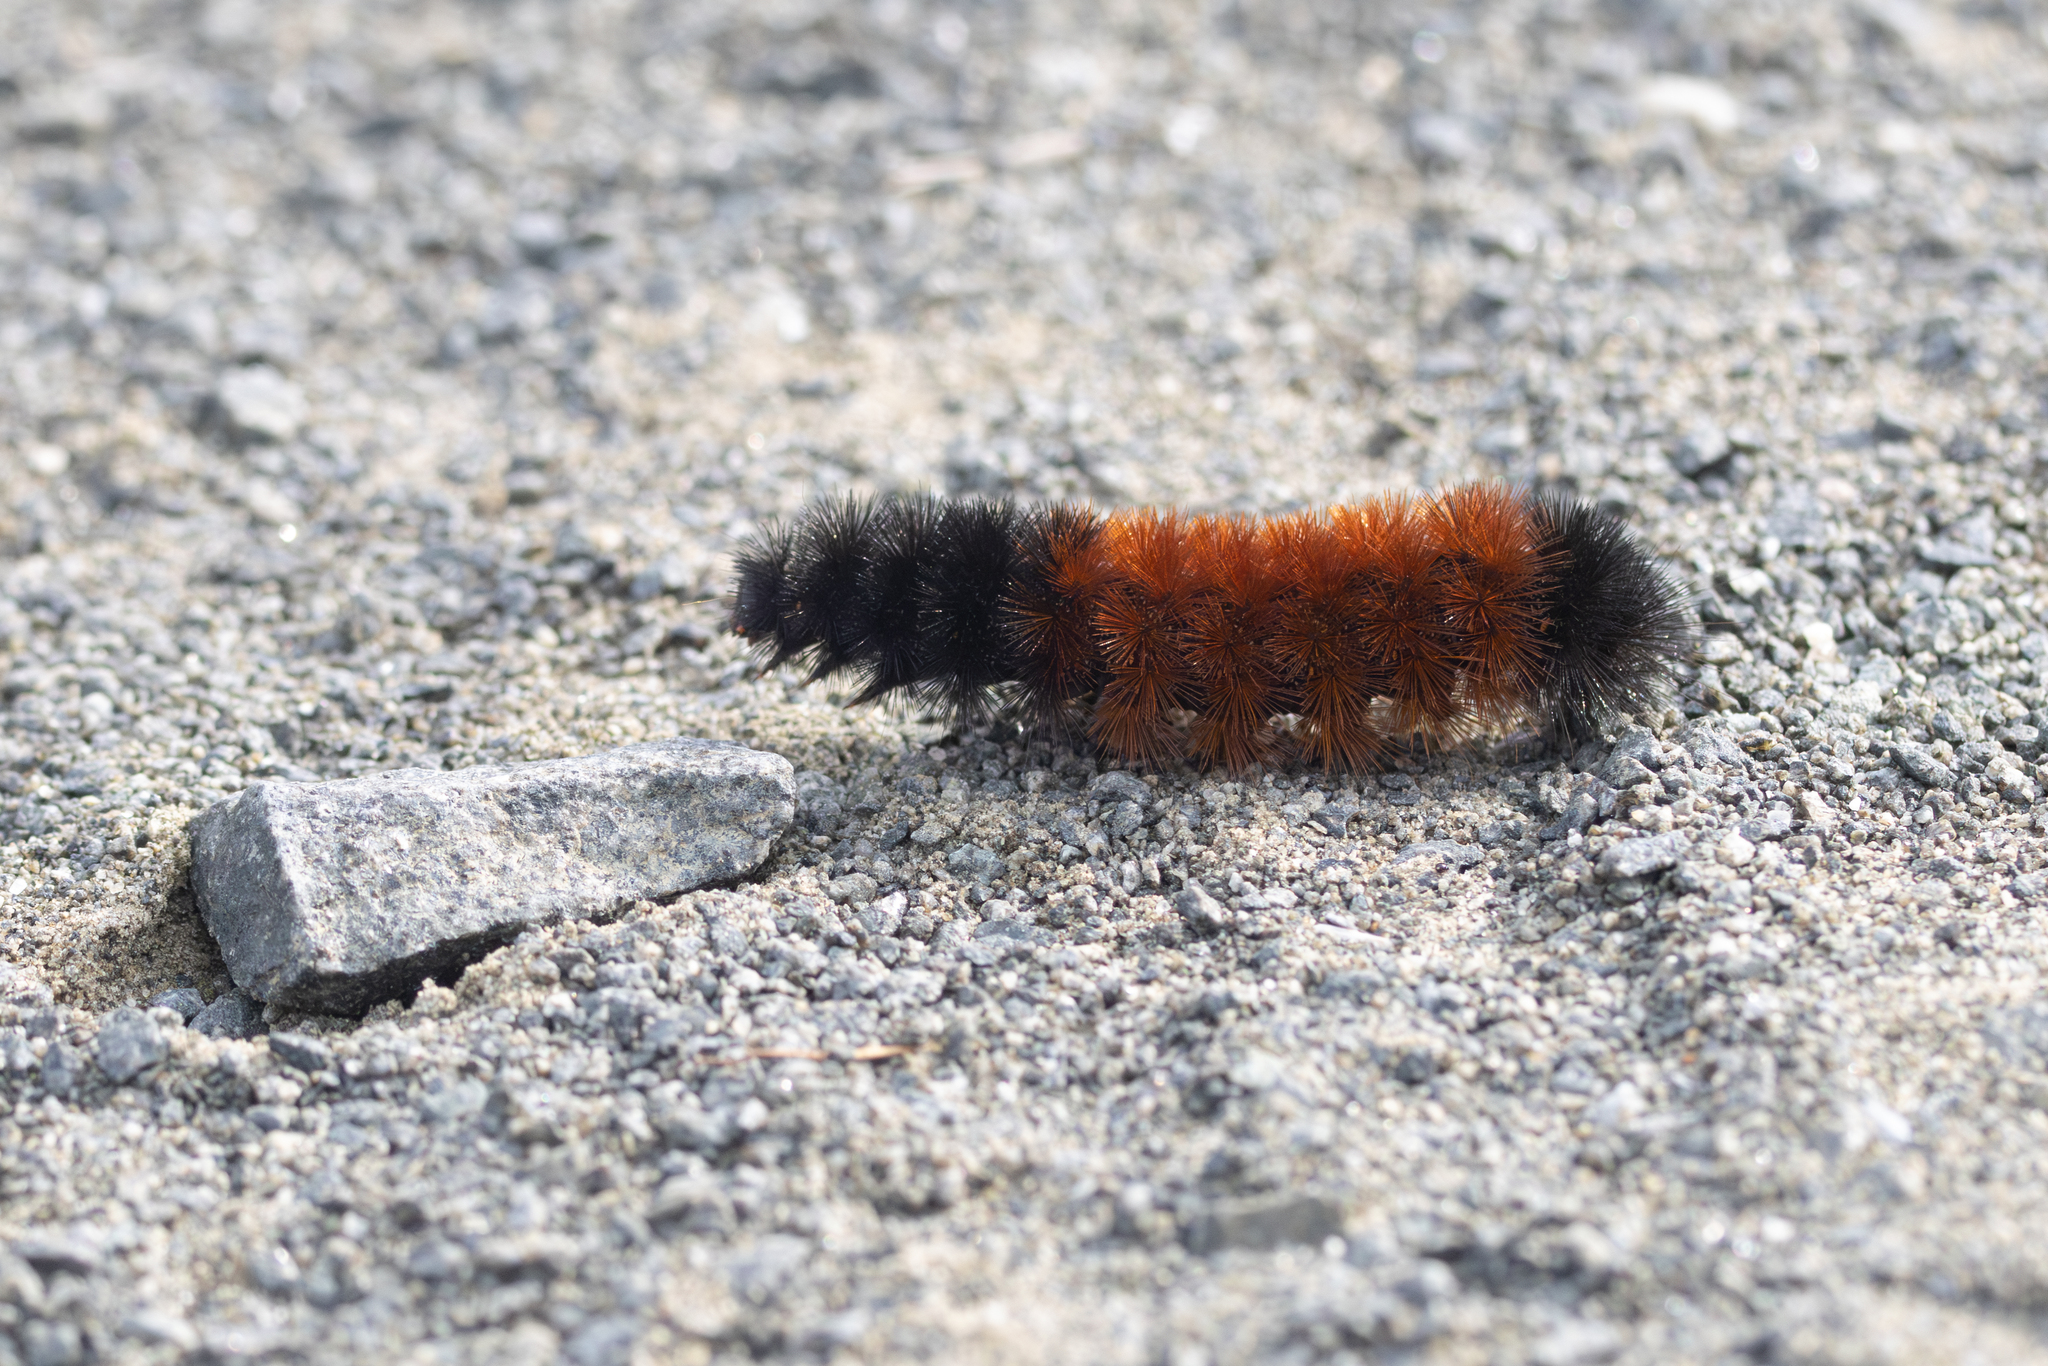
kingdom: Animalia
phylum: Arthropoda
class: Insecta
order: Lepidoptera
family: Erebidae
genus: Pyrrharctia
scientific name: Pyrrharctia isabella
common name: Isabella tiger moth
